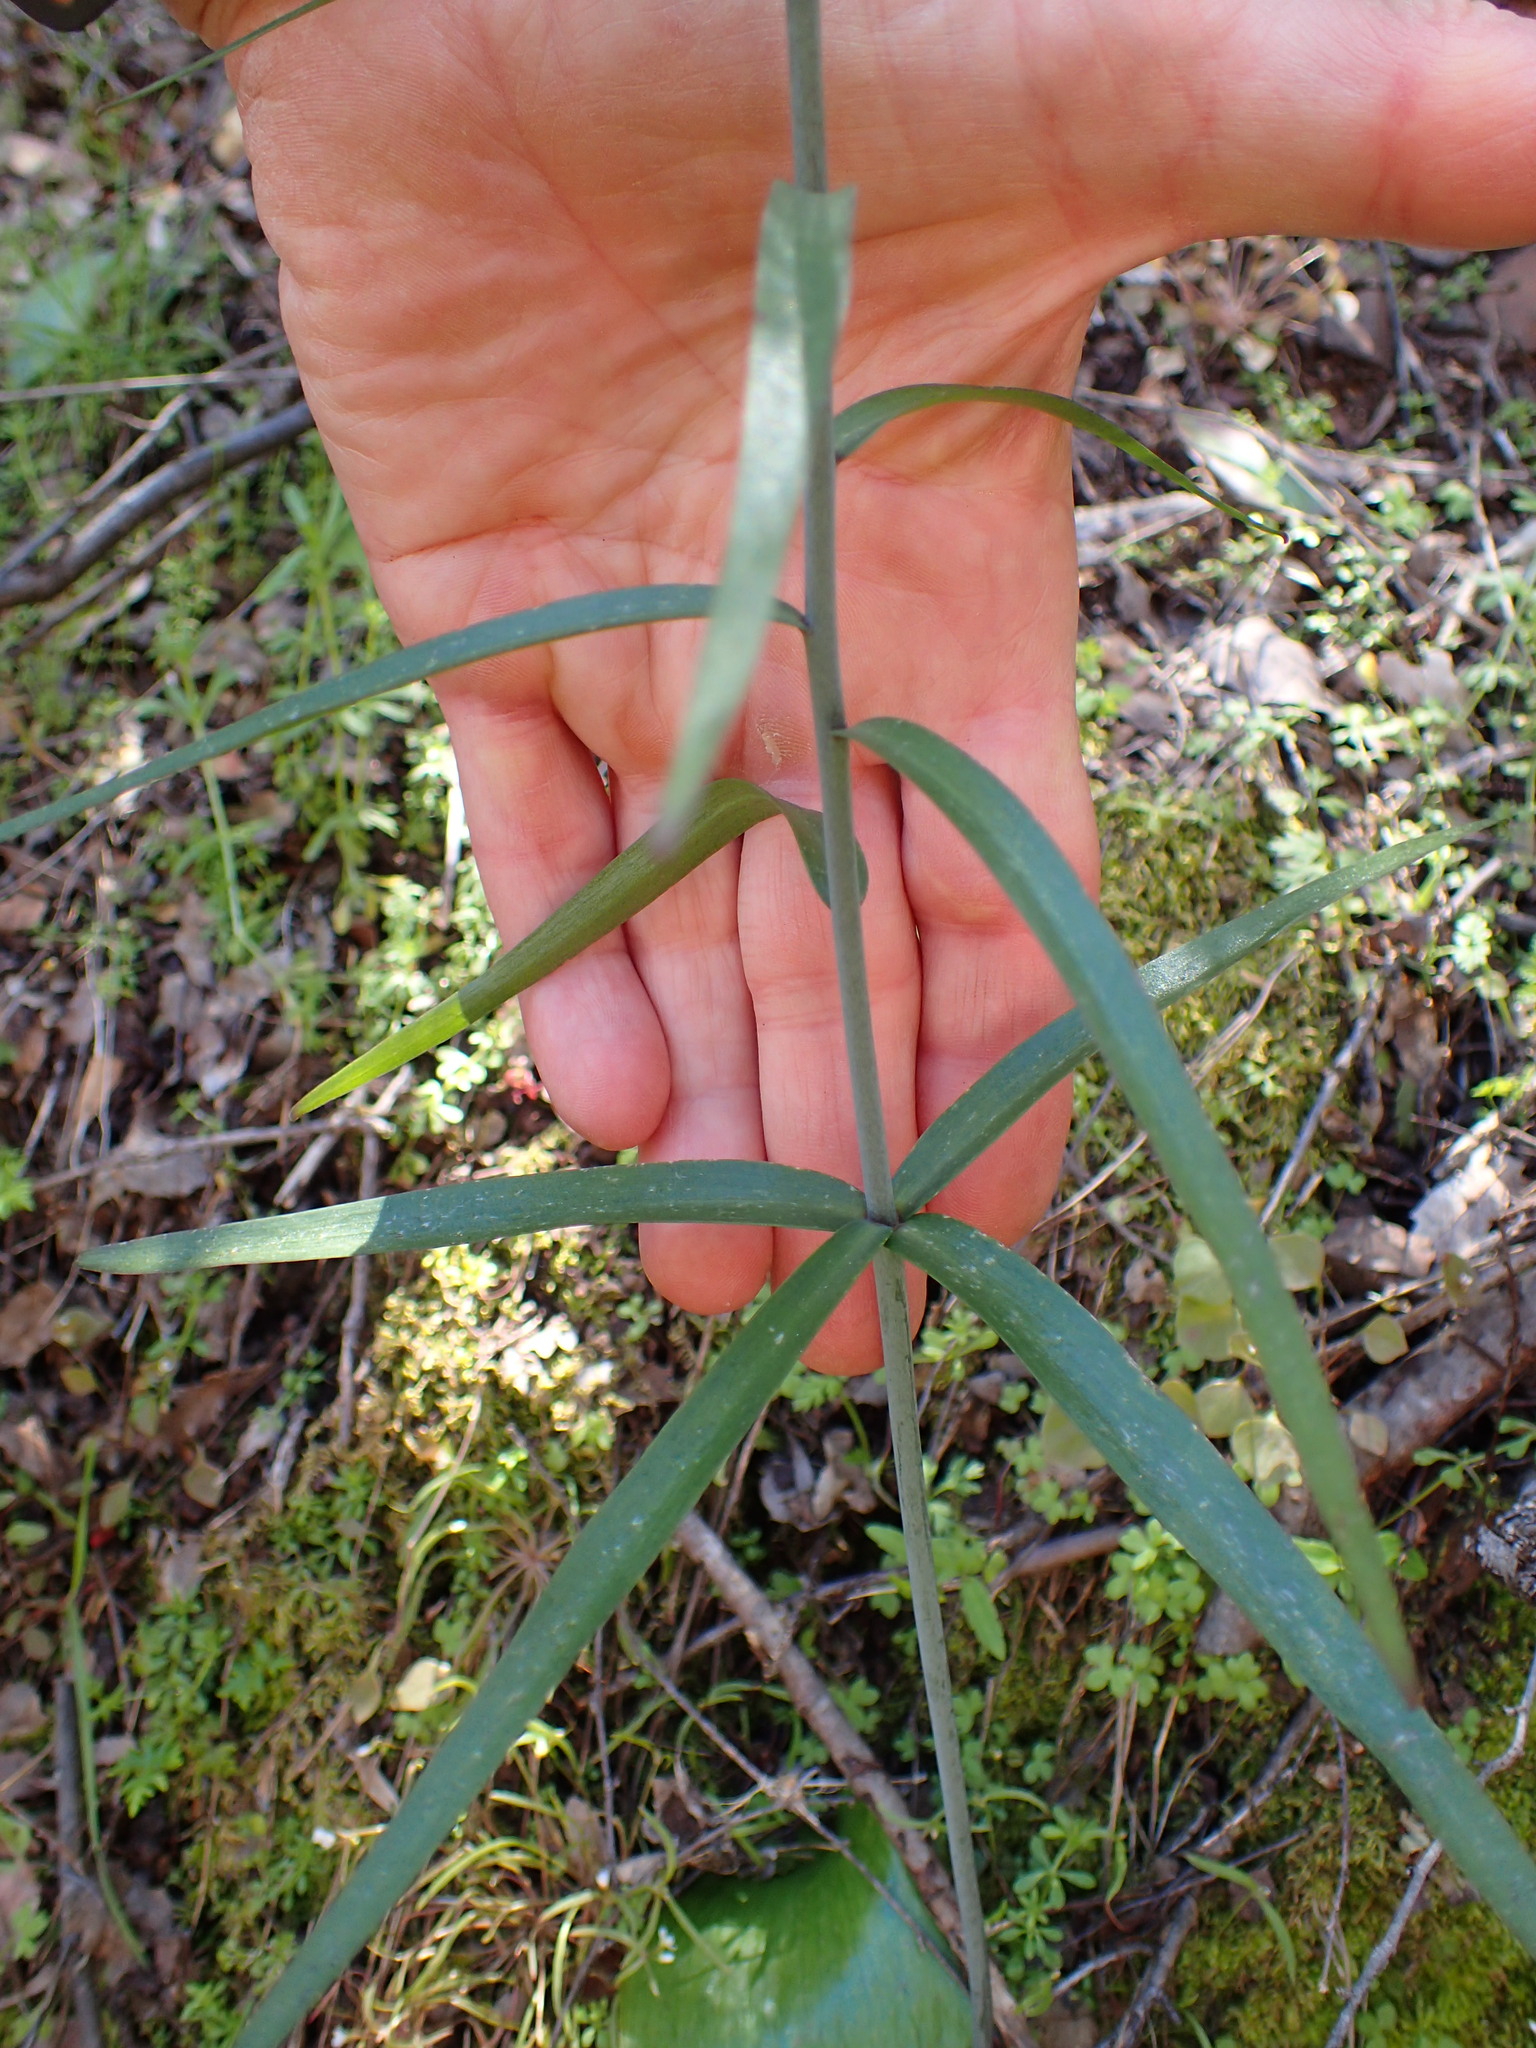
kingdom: Plantae
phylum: Tracheophyta
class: Liliopsida
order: Liliales
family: Liliaceae
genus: Fritillaria
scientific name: Fritillaria ojaiensis
